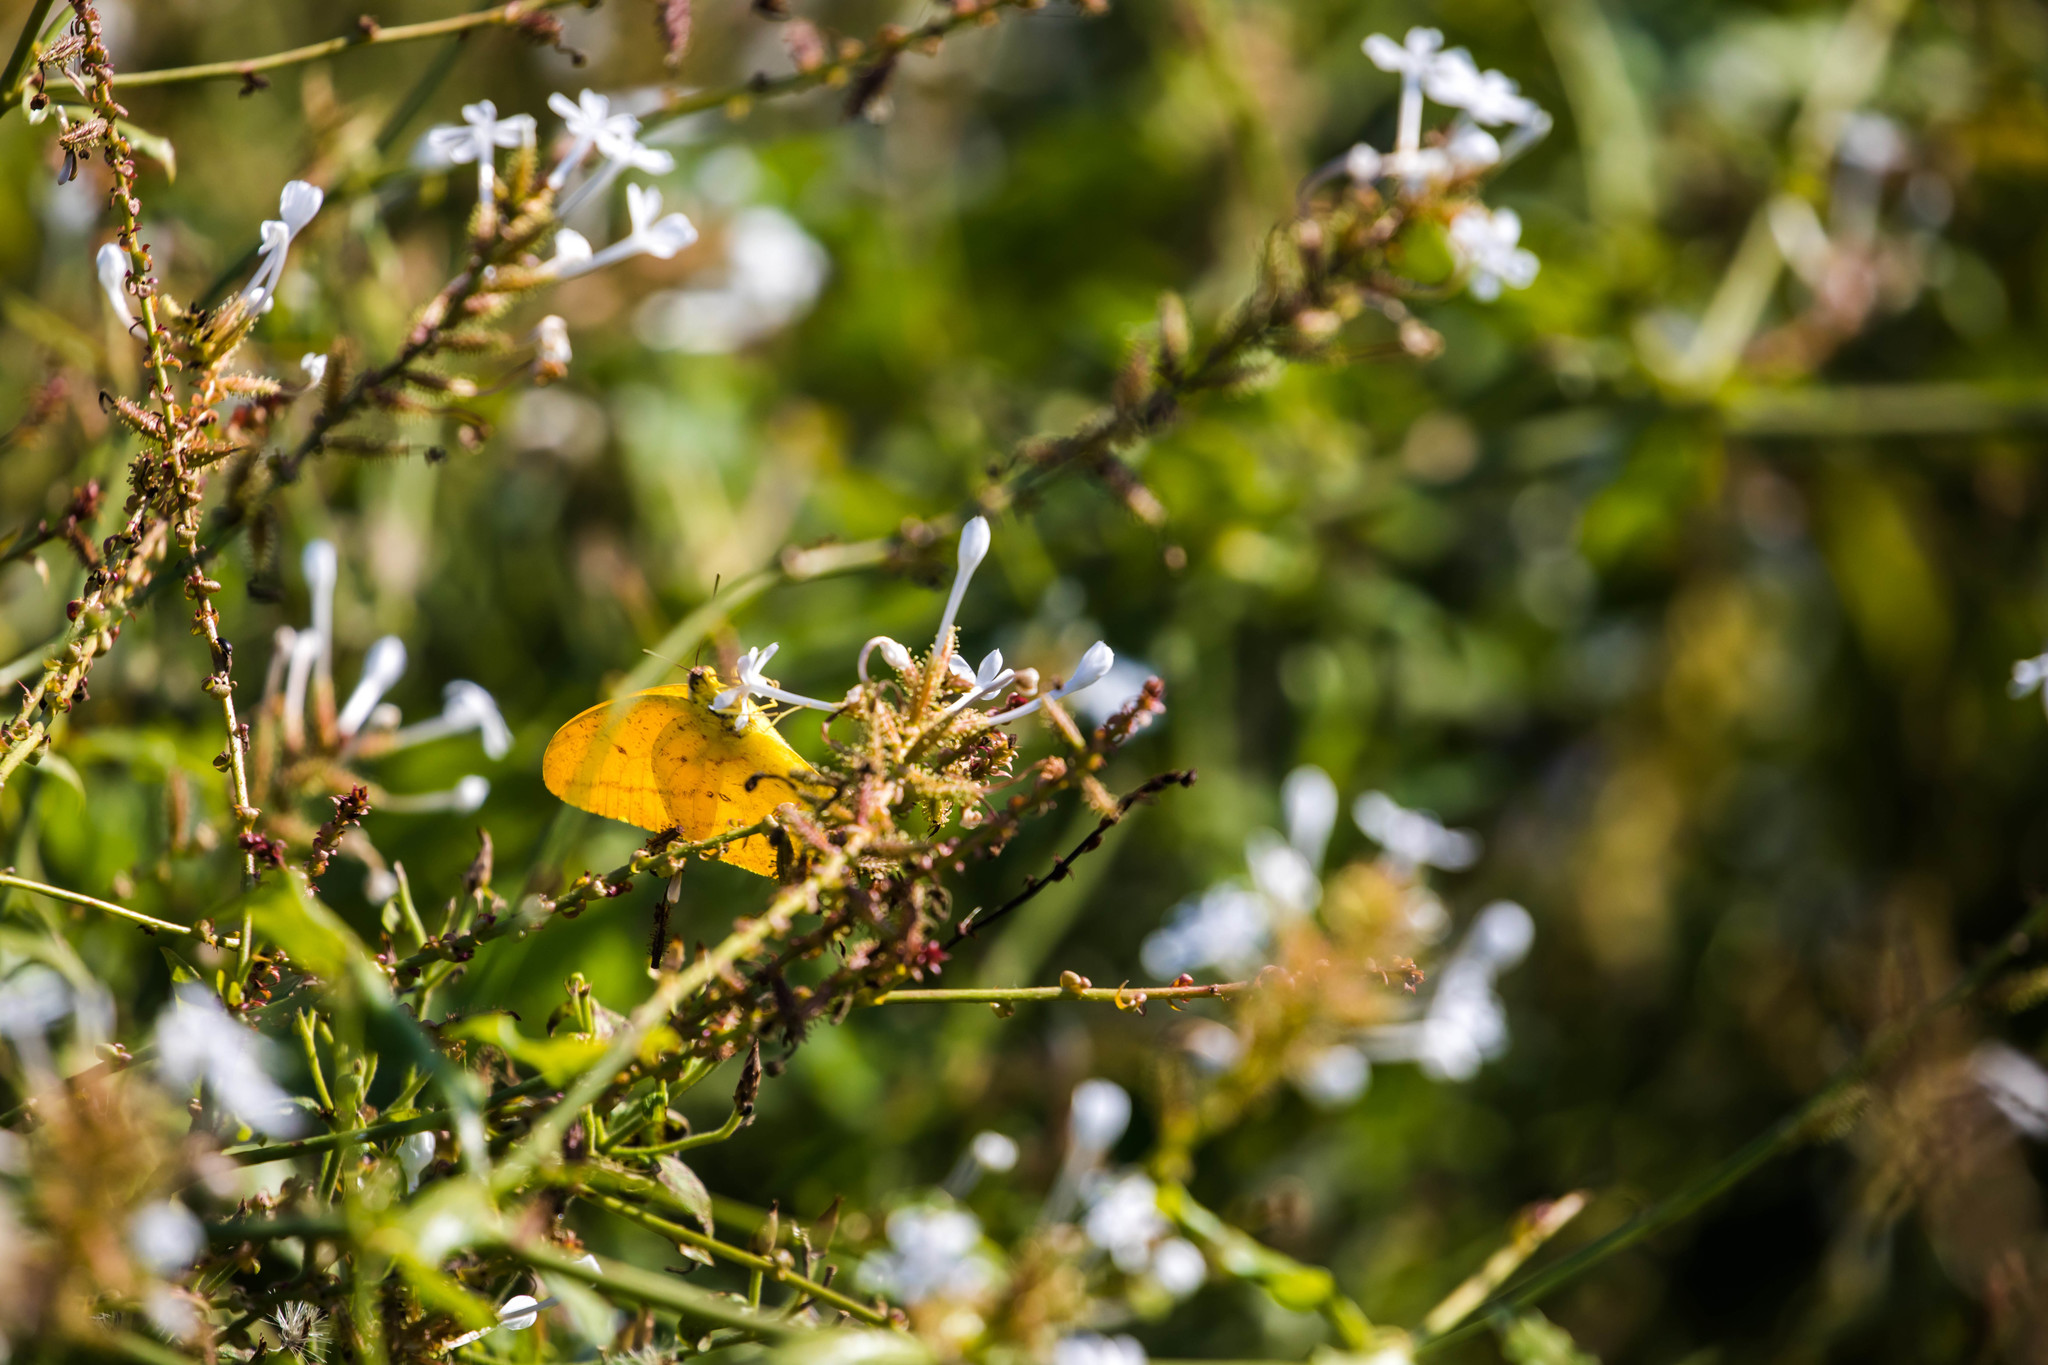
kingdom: Animalia
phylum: Arthropoda
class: Insecta
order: Lepidoptera
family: Pieridae
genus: Phoebis
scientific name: Phoebis agarithe
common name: Large orange sulphur
